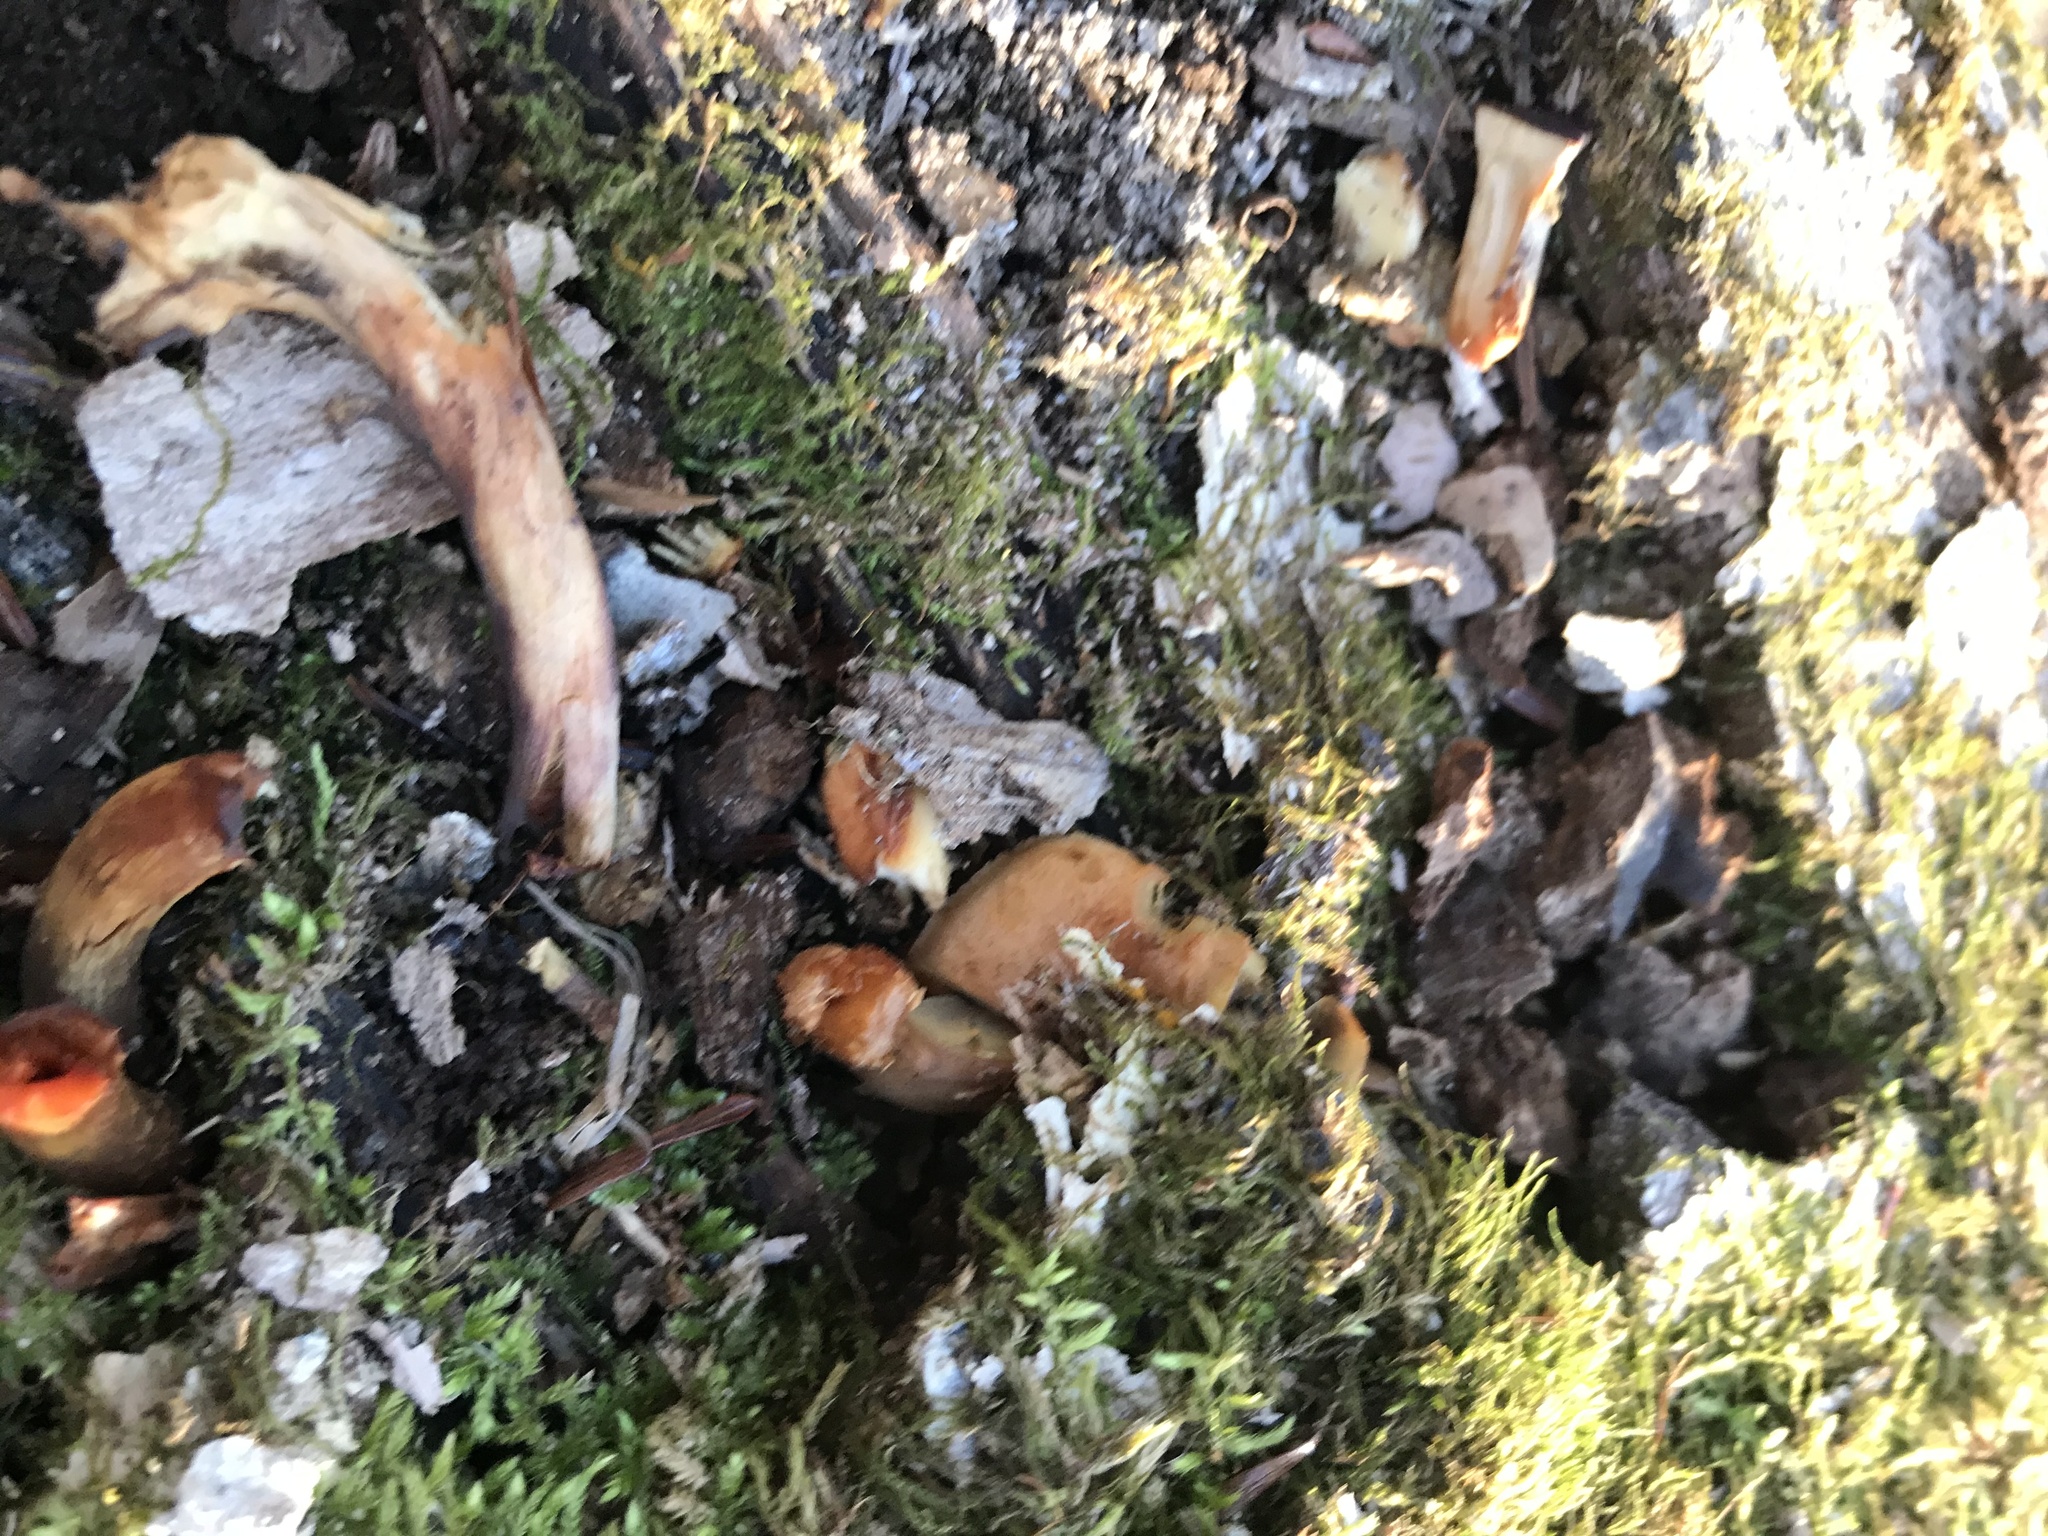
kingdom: Fungi
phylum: Basidiomycota
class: Agaricomycetes
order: Agaricales
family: Strophariaceae
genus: Hypholoma
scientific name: Hypholoma lateritium
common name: Brick caps
